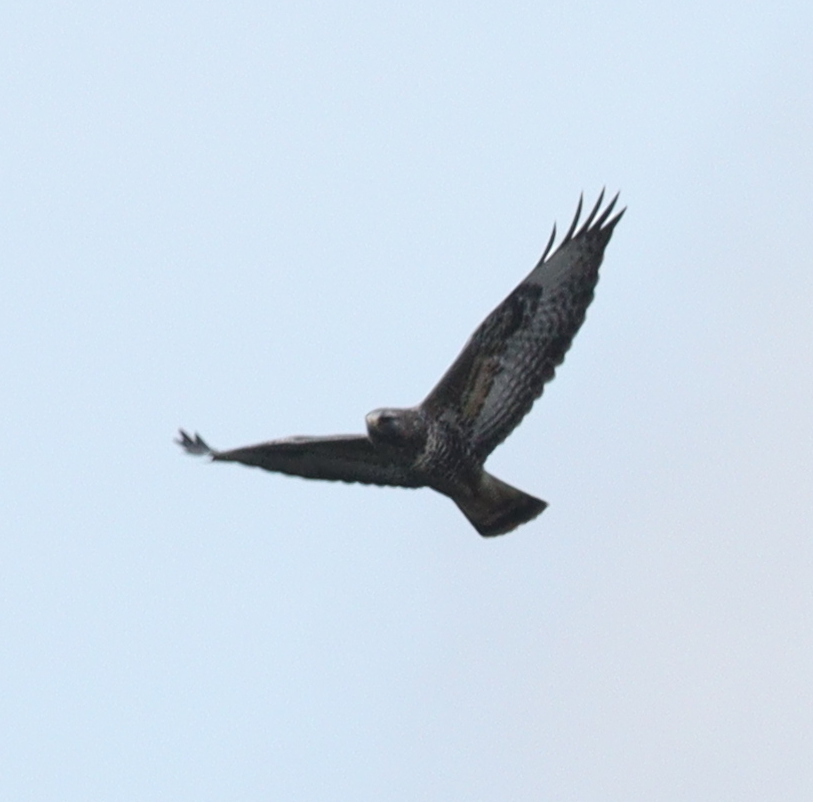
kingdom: Animalia
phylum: Chordata
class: Aves
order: Accipitriformes
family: Accipitridae
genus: Buteo
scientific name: Buteo buteo
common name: Common buzzard
